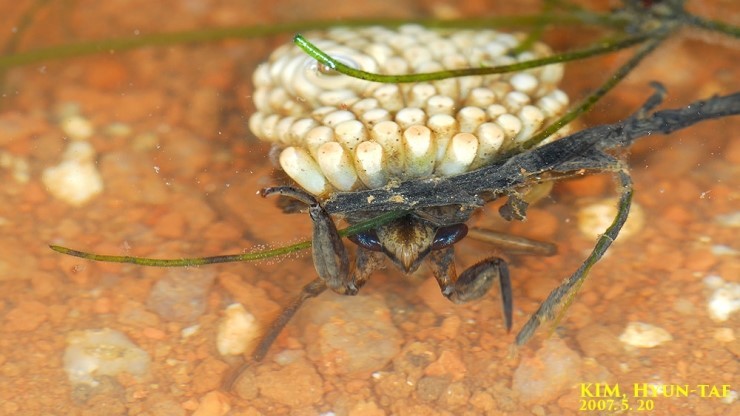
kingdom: Animalia
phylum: Arthropoda
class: Insecta
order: Hemiptera
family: Belostomatidae
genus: Appasus
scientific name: Appasus japonicus
